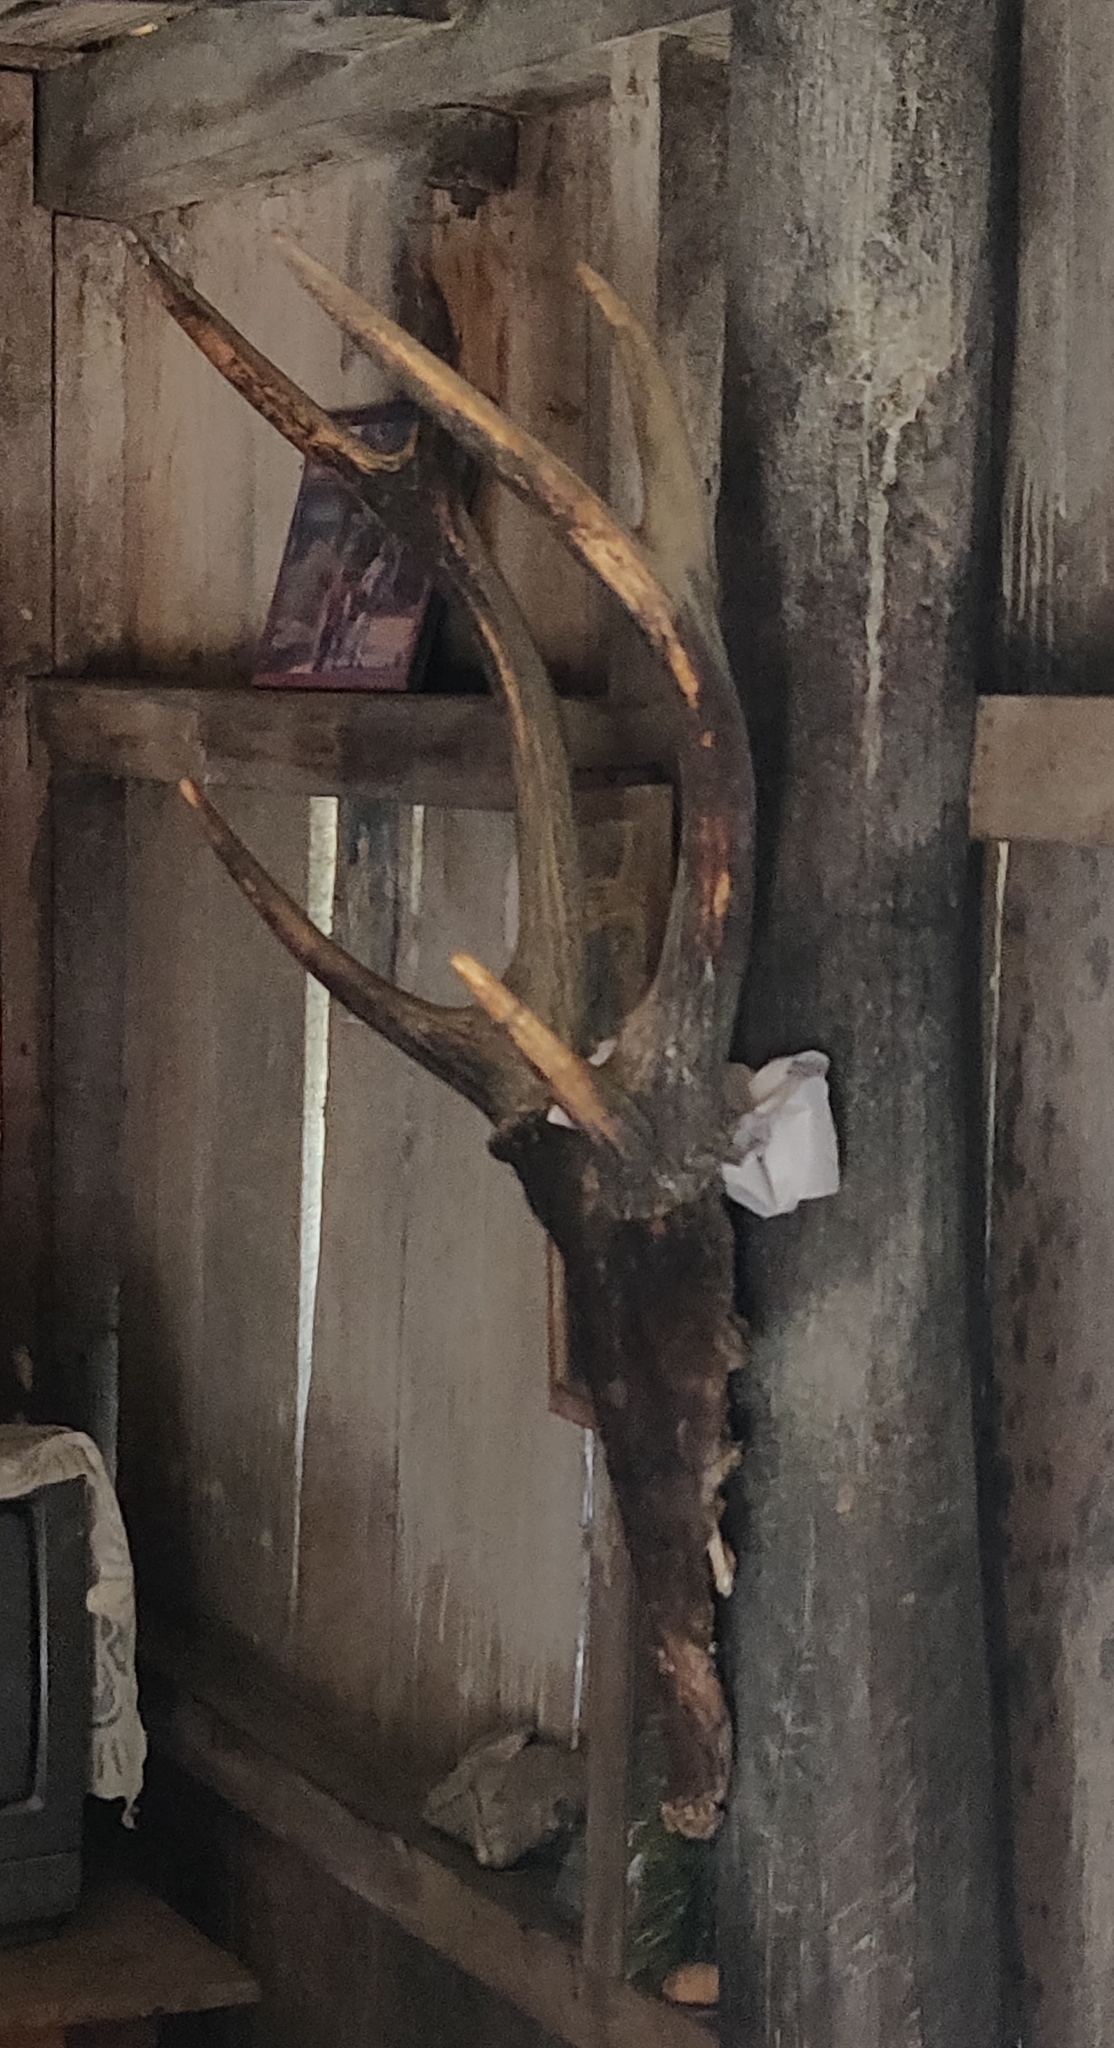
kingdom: Animalia
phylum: Chordata
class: Mammalia
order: Artiodactyla
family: Cervidae
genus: Rusa
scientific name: Rusa unicolor
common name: Sambar
